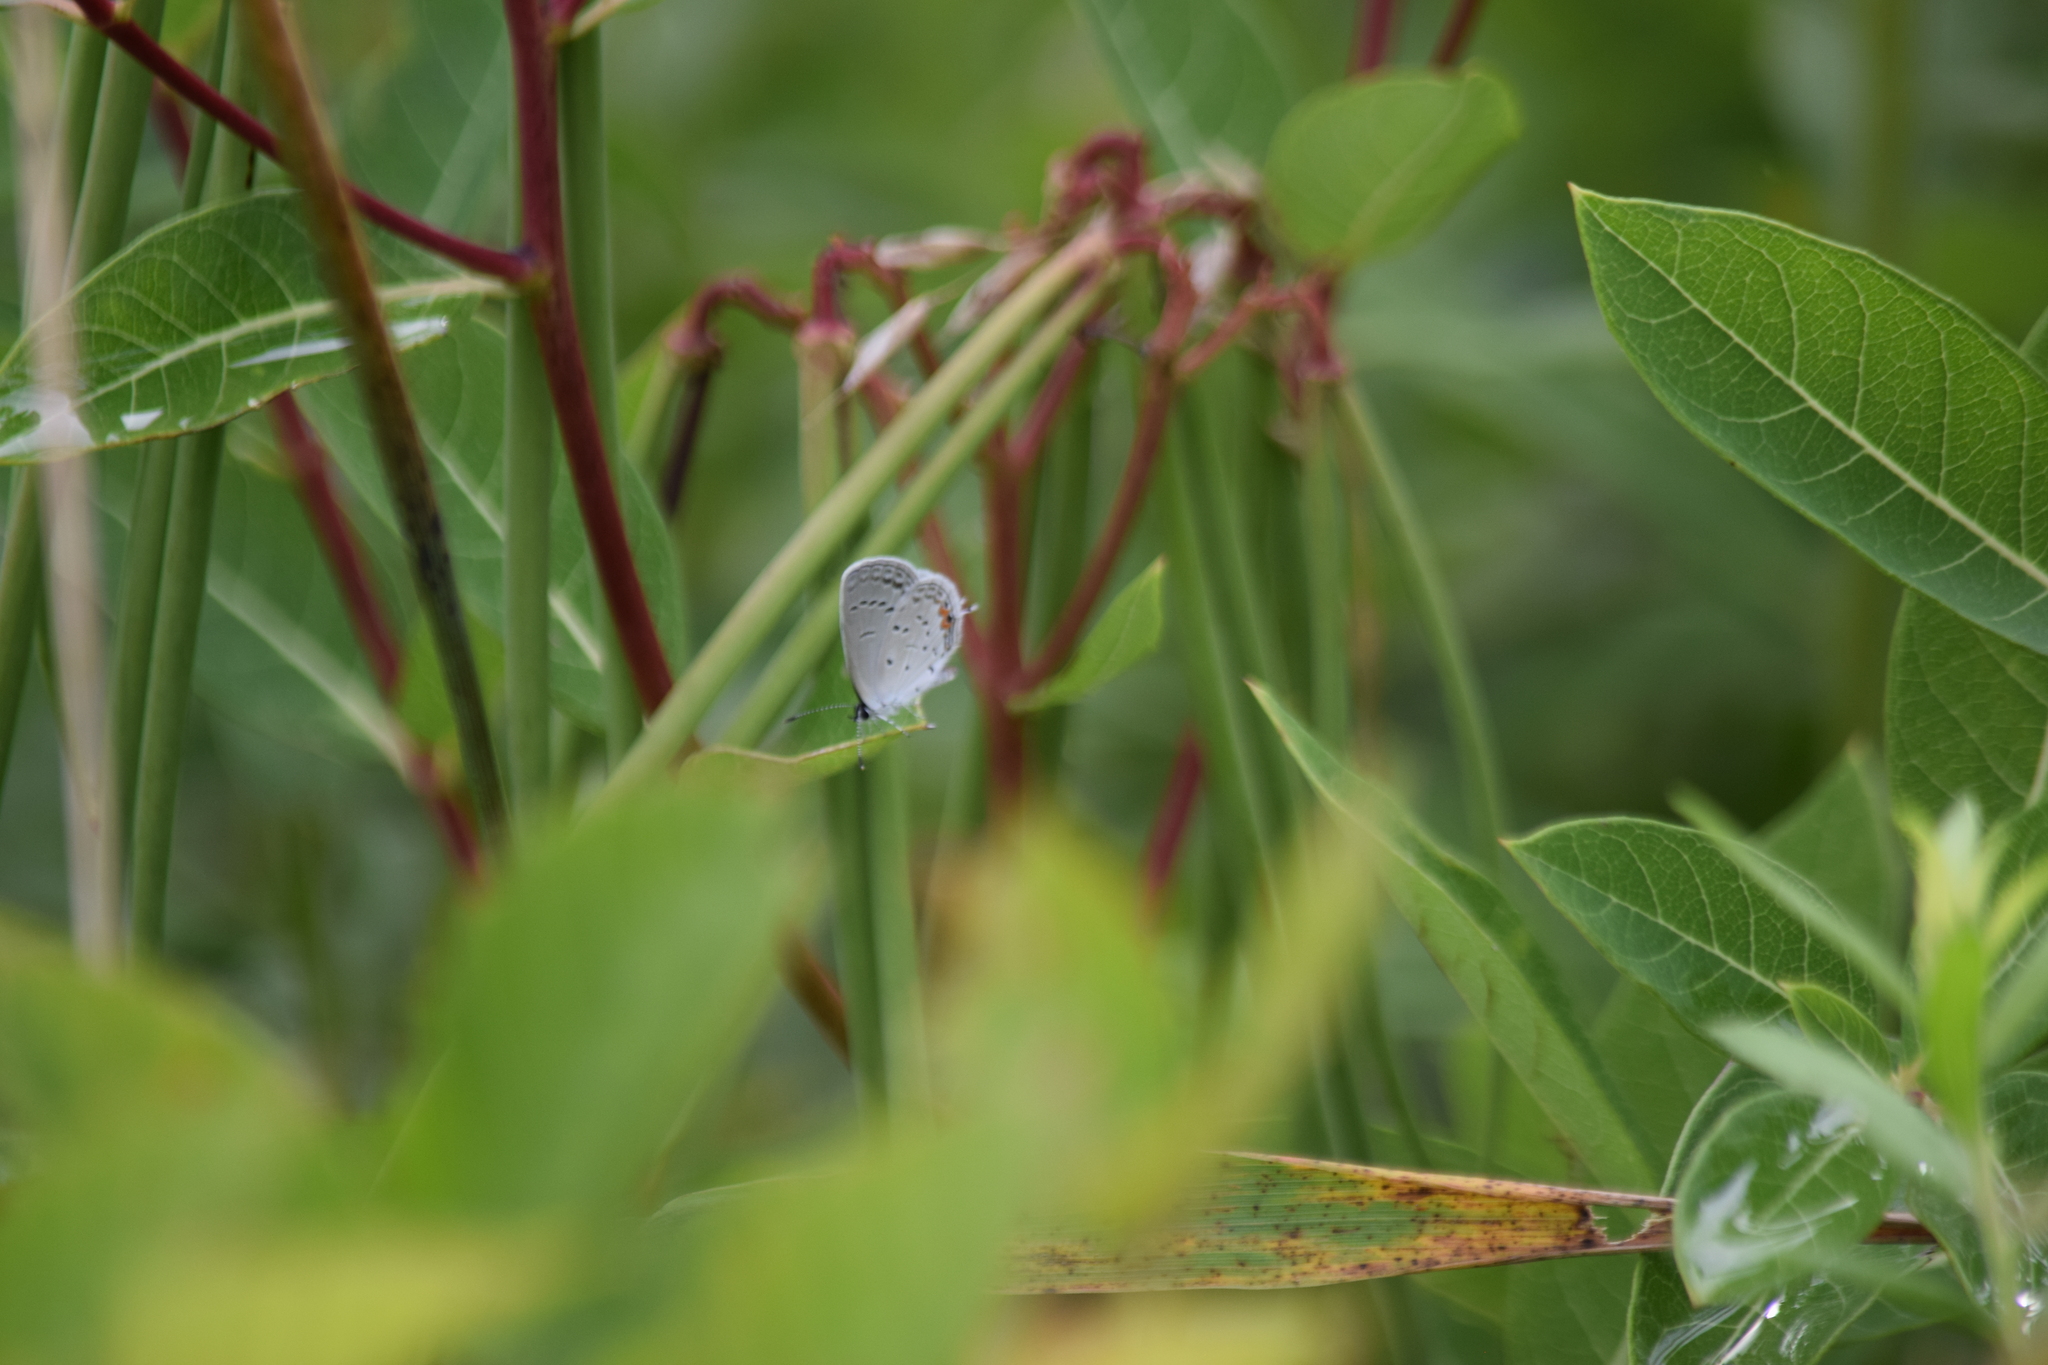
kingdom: Animalia
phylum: Arthropoda
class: Insecta
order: Lepidoptera
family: Lycaenidae
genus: Elkalyce
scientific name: Elkalyce comyntas
